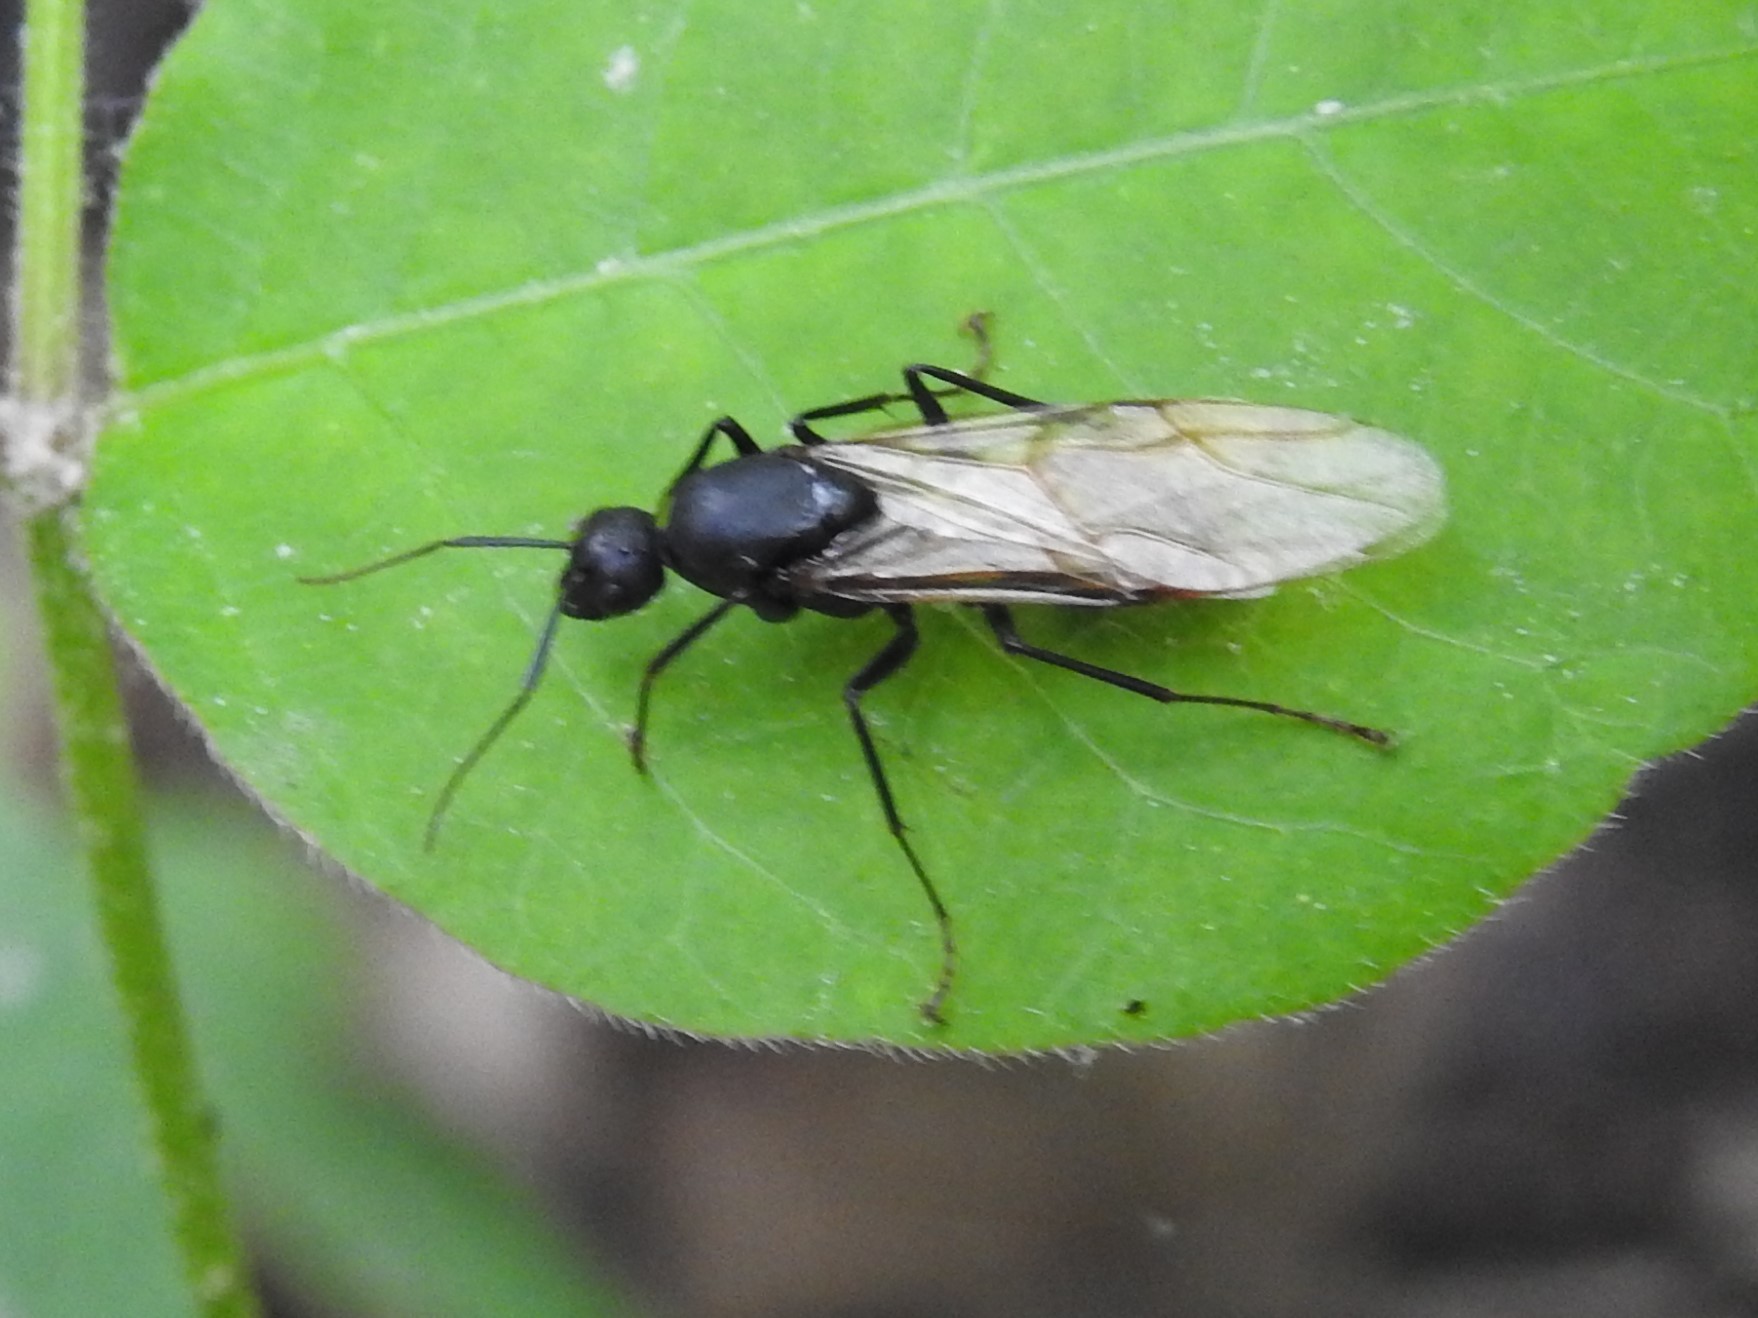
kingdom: Animalia
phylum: Arthropoda
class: Insecta
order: Hymenoptera
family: Formicidae
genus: Camponotus
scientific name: Camponotus pennsylvanicus
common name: Black carpenter ant
